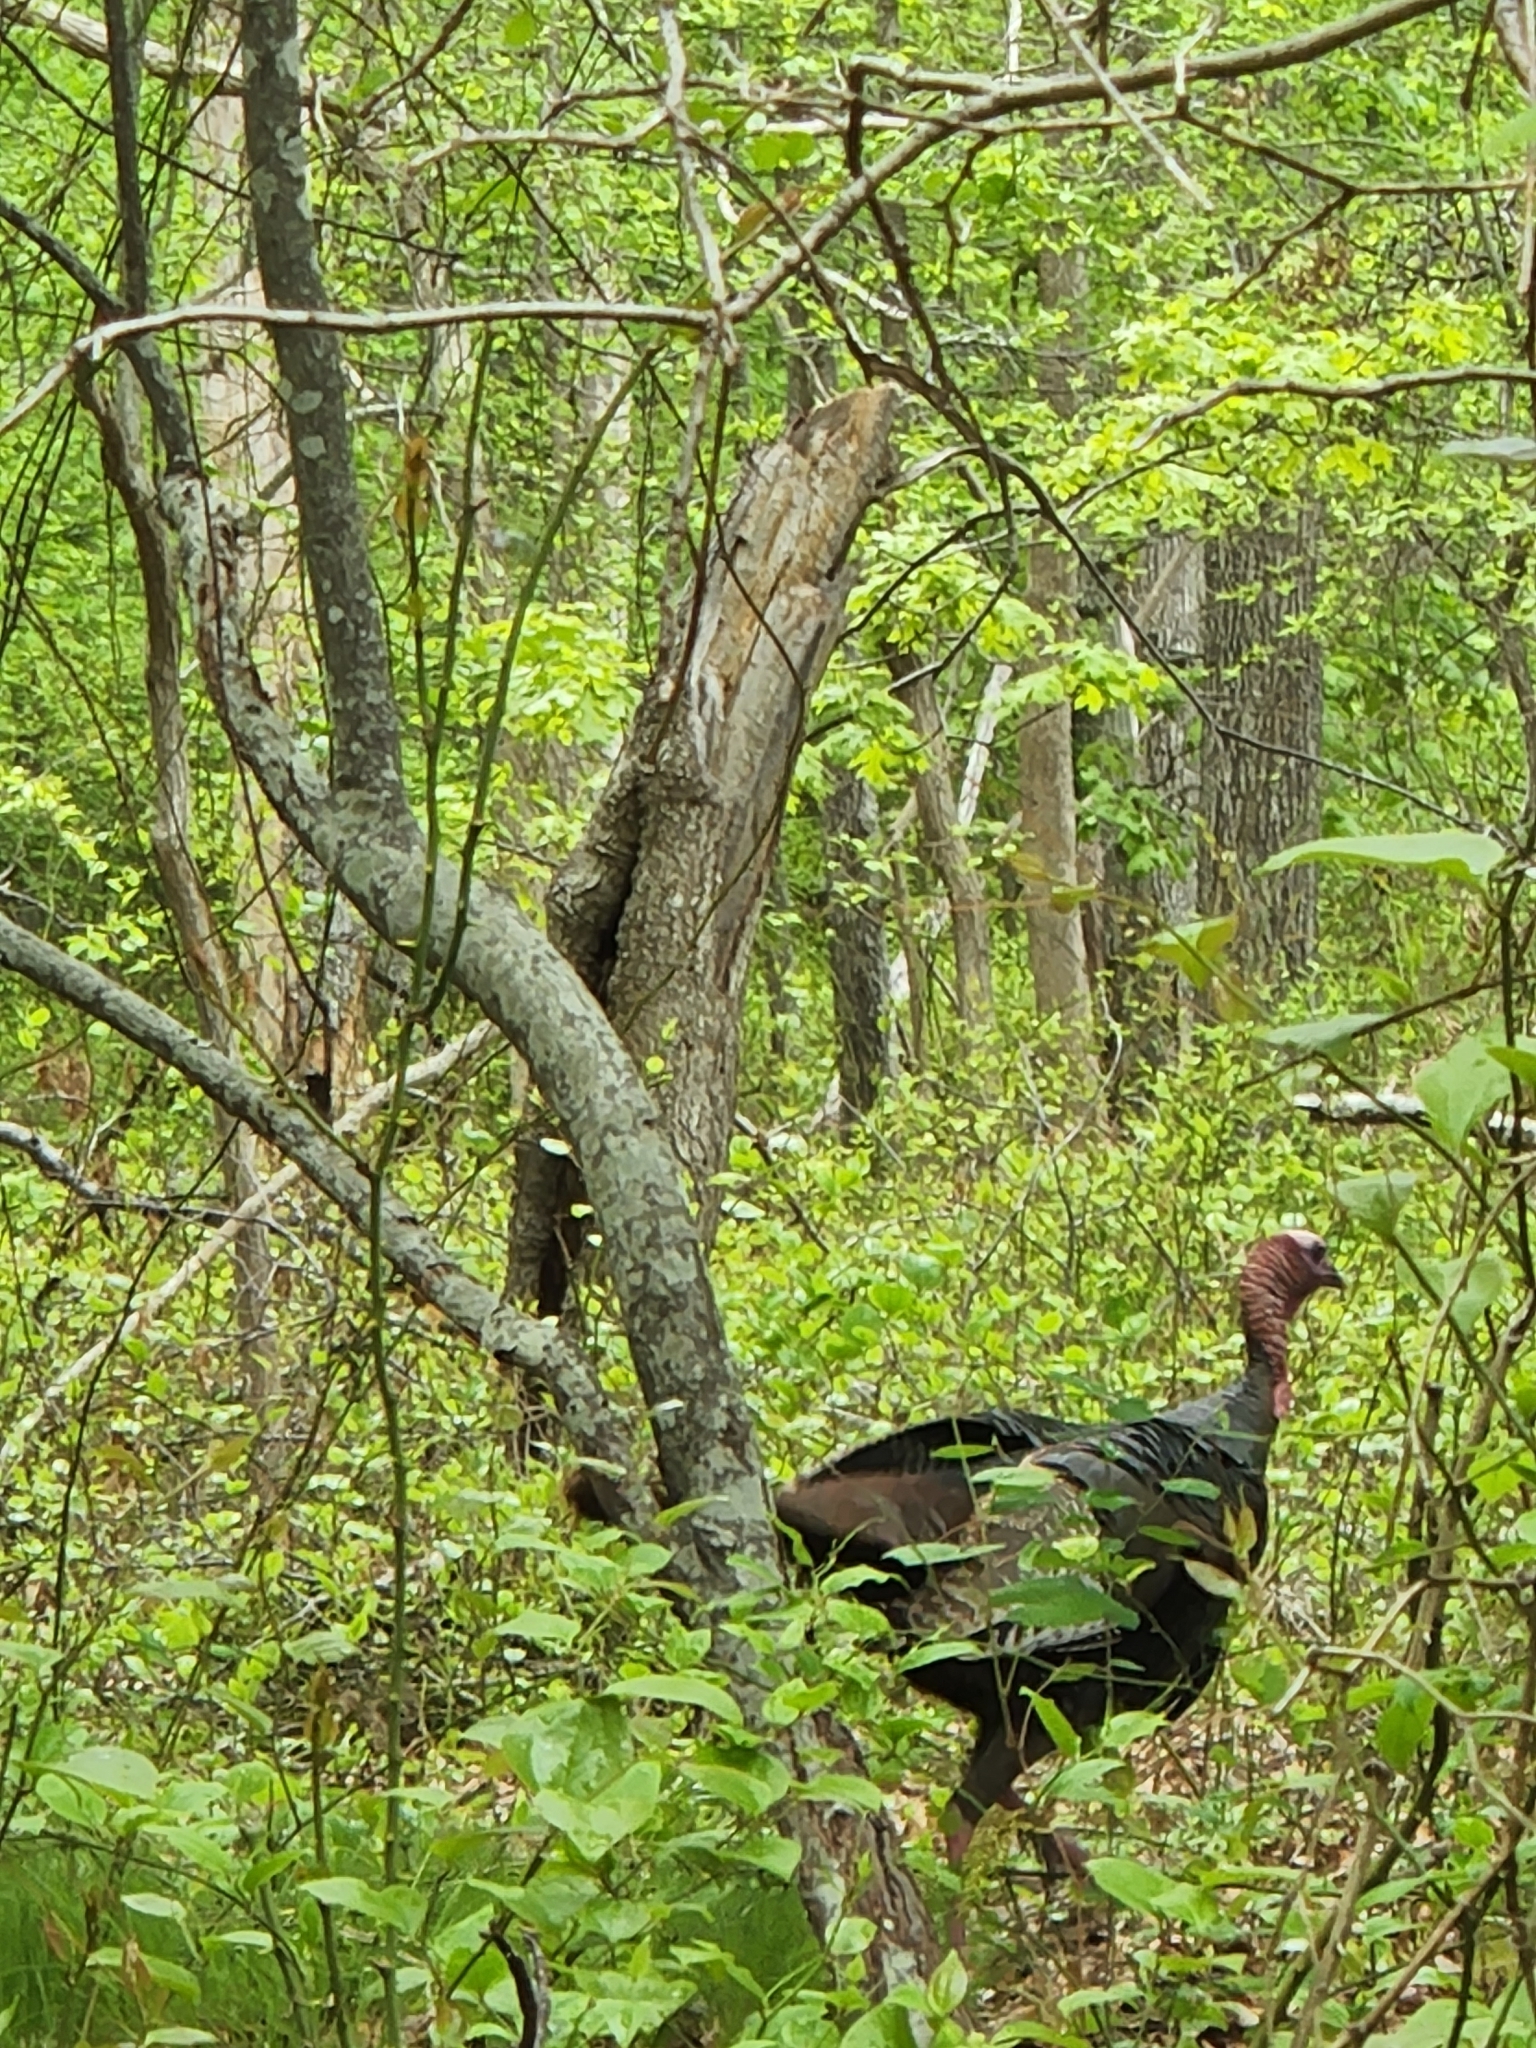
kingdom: Animalia
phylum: Chordata
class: Aves
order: Galliformes
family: Phasianidae
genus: Meleagris
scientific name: Meleagris gallopavo
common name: Wild turkey
